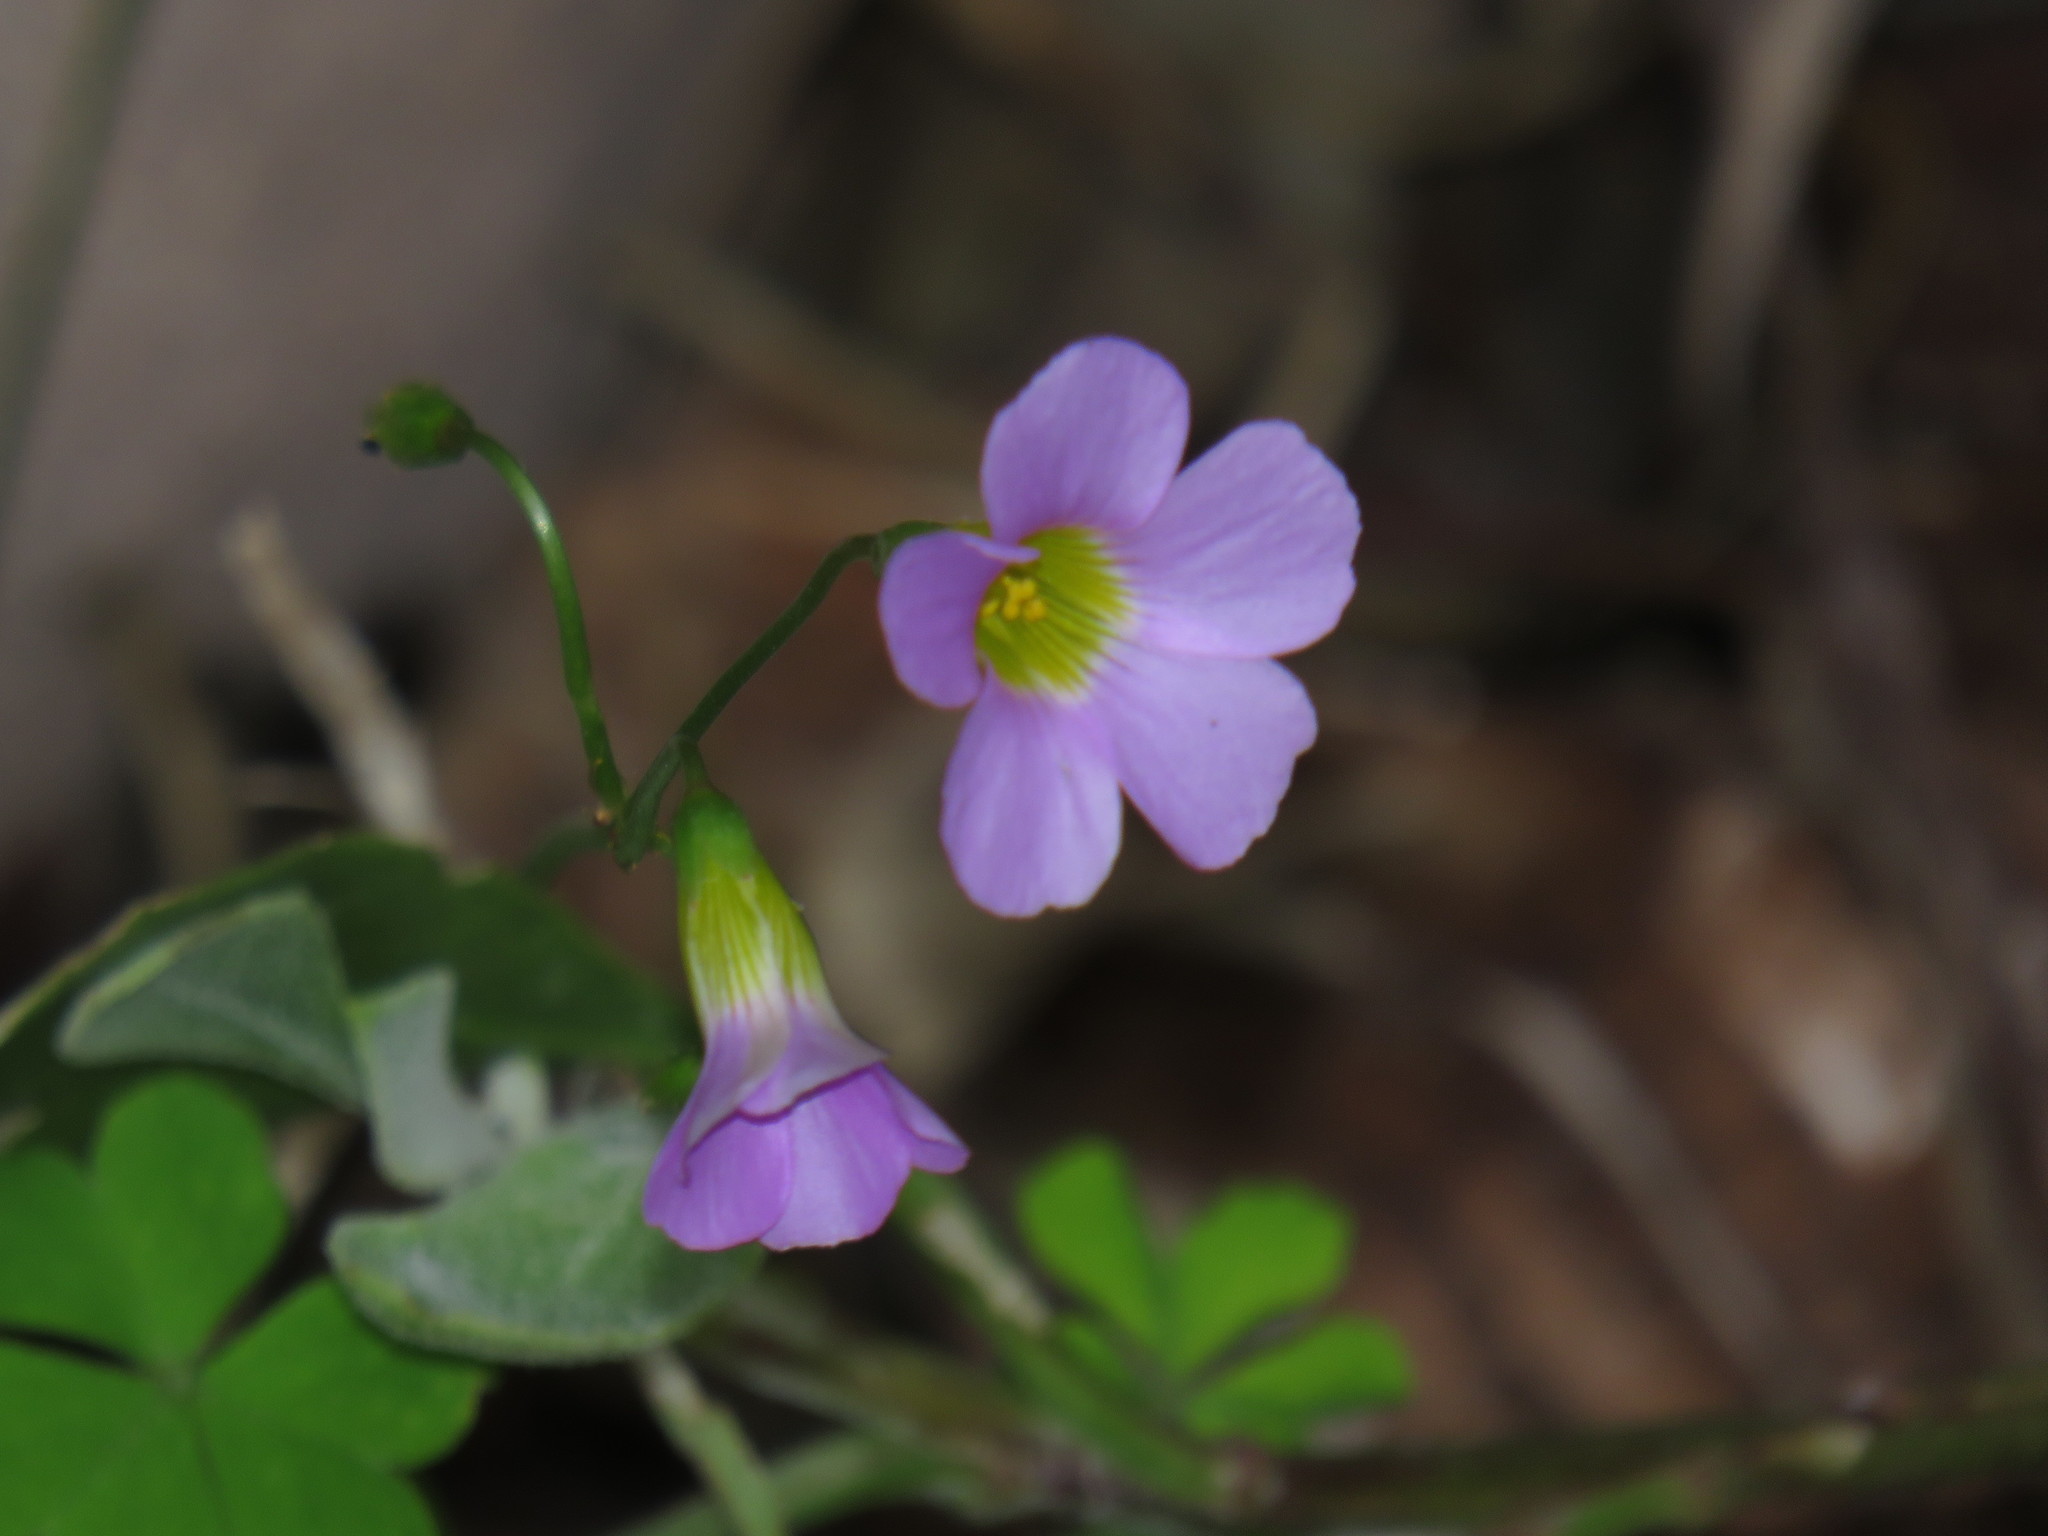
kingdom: Plantae
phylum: Tracheophyta
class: Magnoliopsida
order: Oxalidales
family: Oxalidaceae
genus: Oxalis
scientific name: Oxalis caprina
